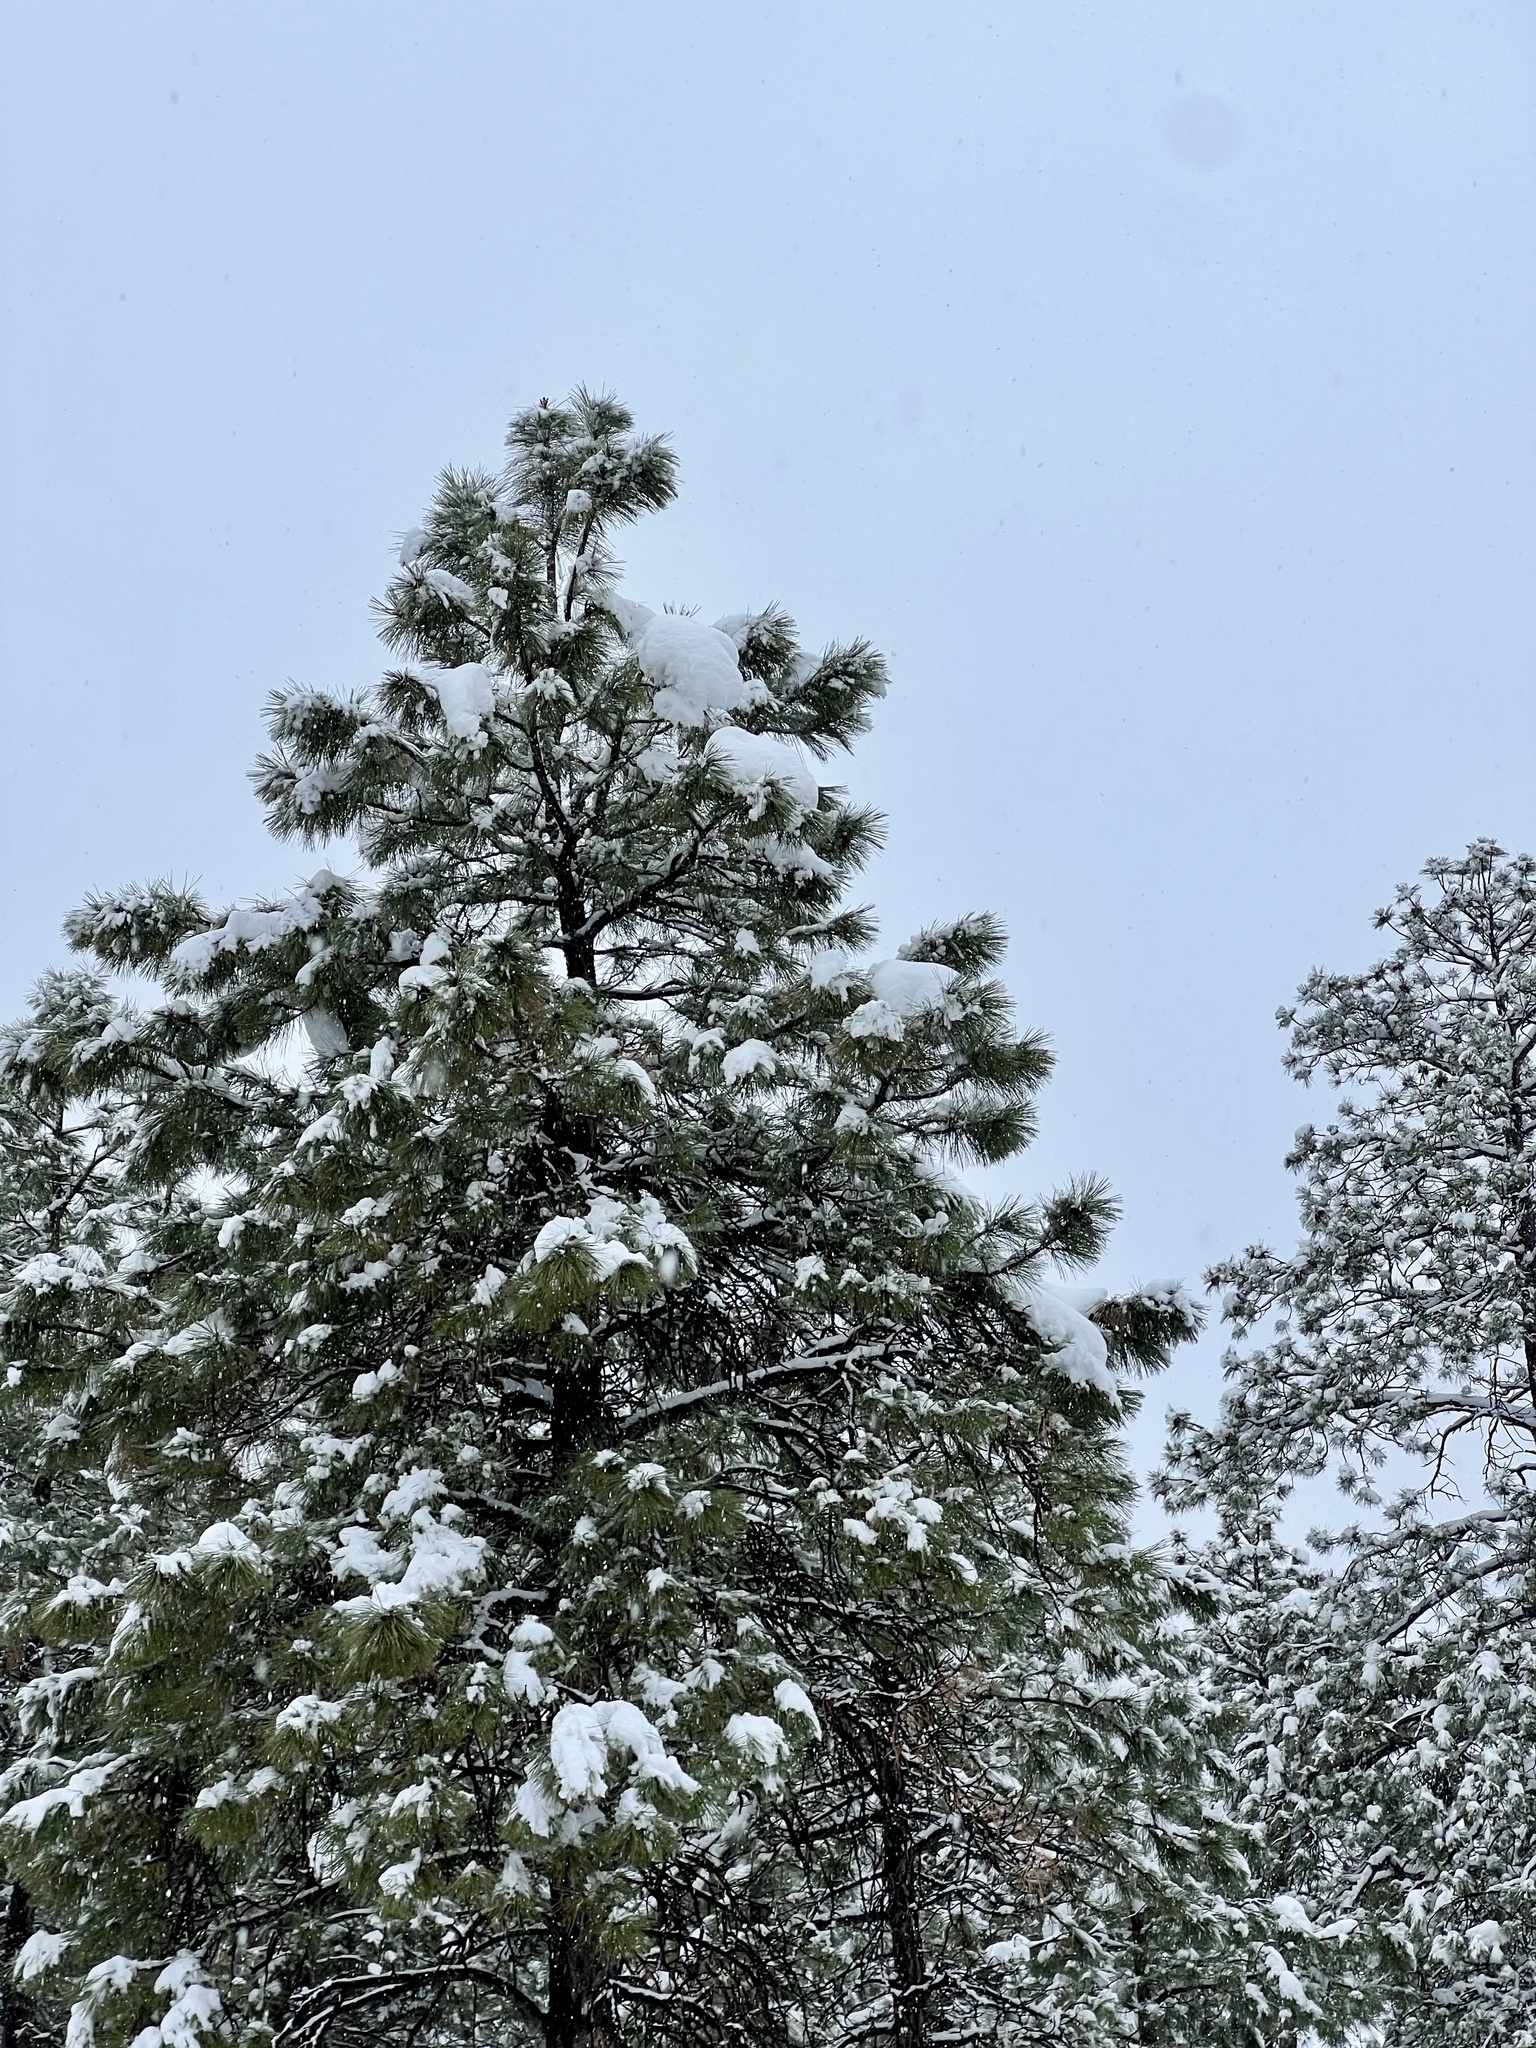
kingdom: Plantae
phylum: Tracheophyta
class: Pinopsida
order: Pinales
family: Pinaceae
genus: Pinus
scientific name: Pinus ponderosa
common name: Western yellow-pine
